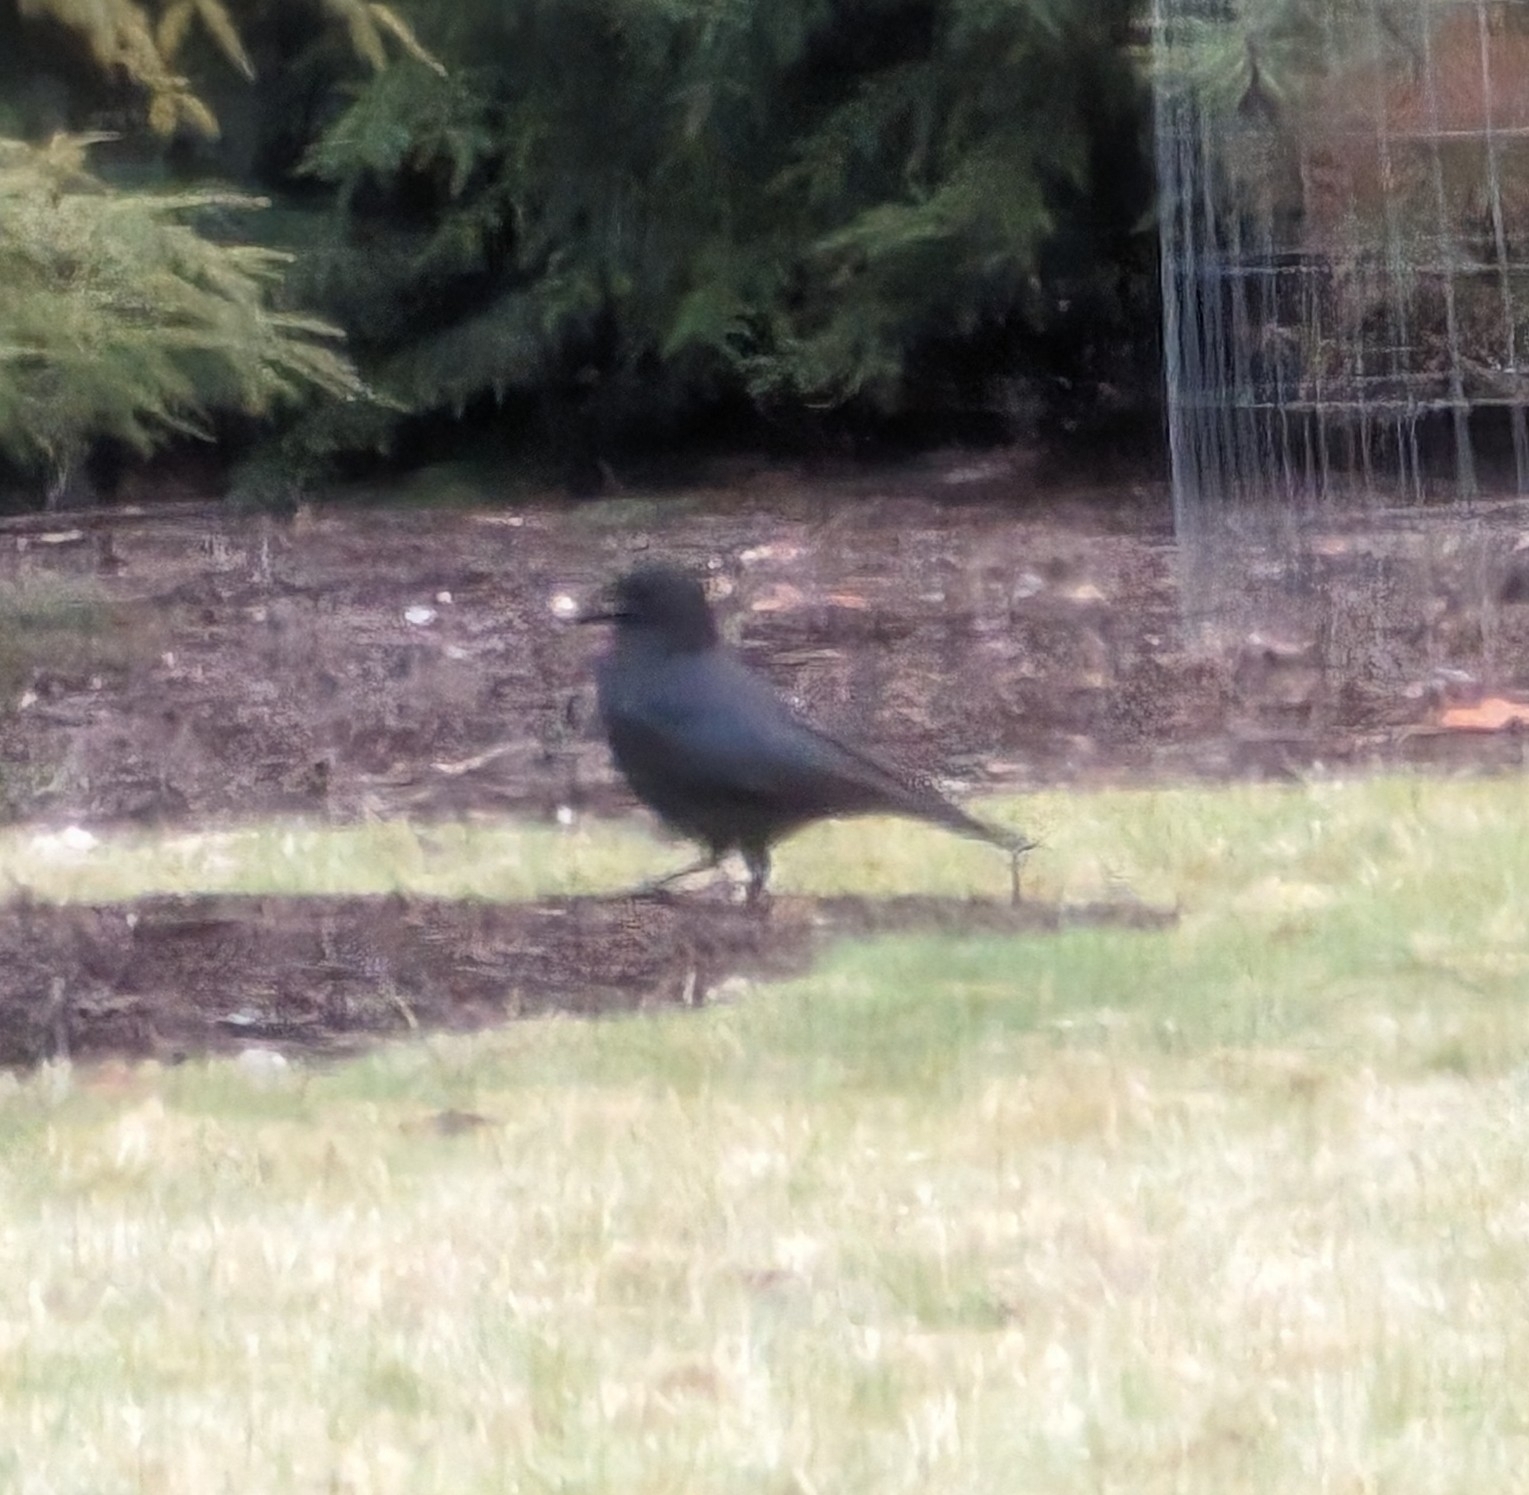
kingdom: Animalia
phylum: Chordata
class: Aves
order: Passeriformes
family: Corvidae
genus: Corvus
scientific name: Corvus brachyrhynchos
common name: American crow
